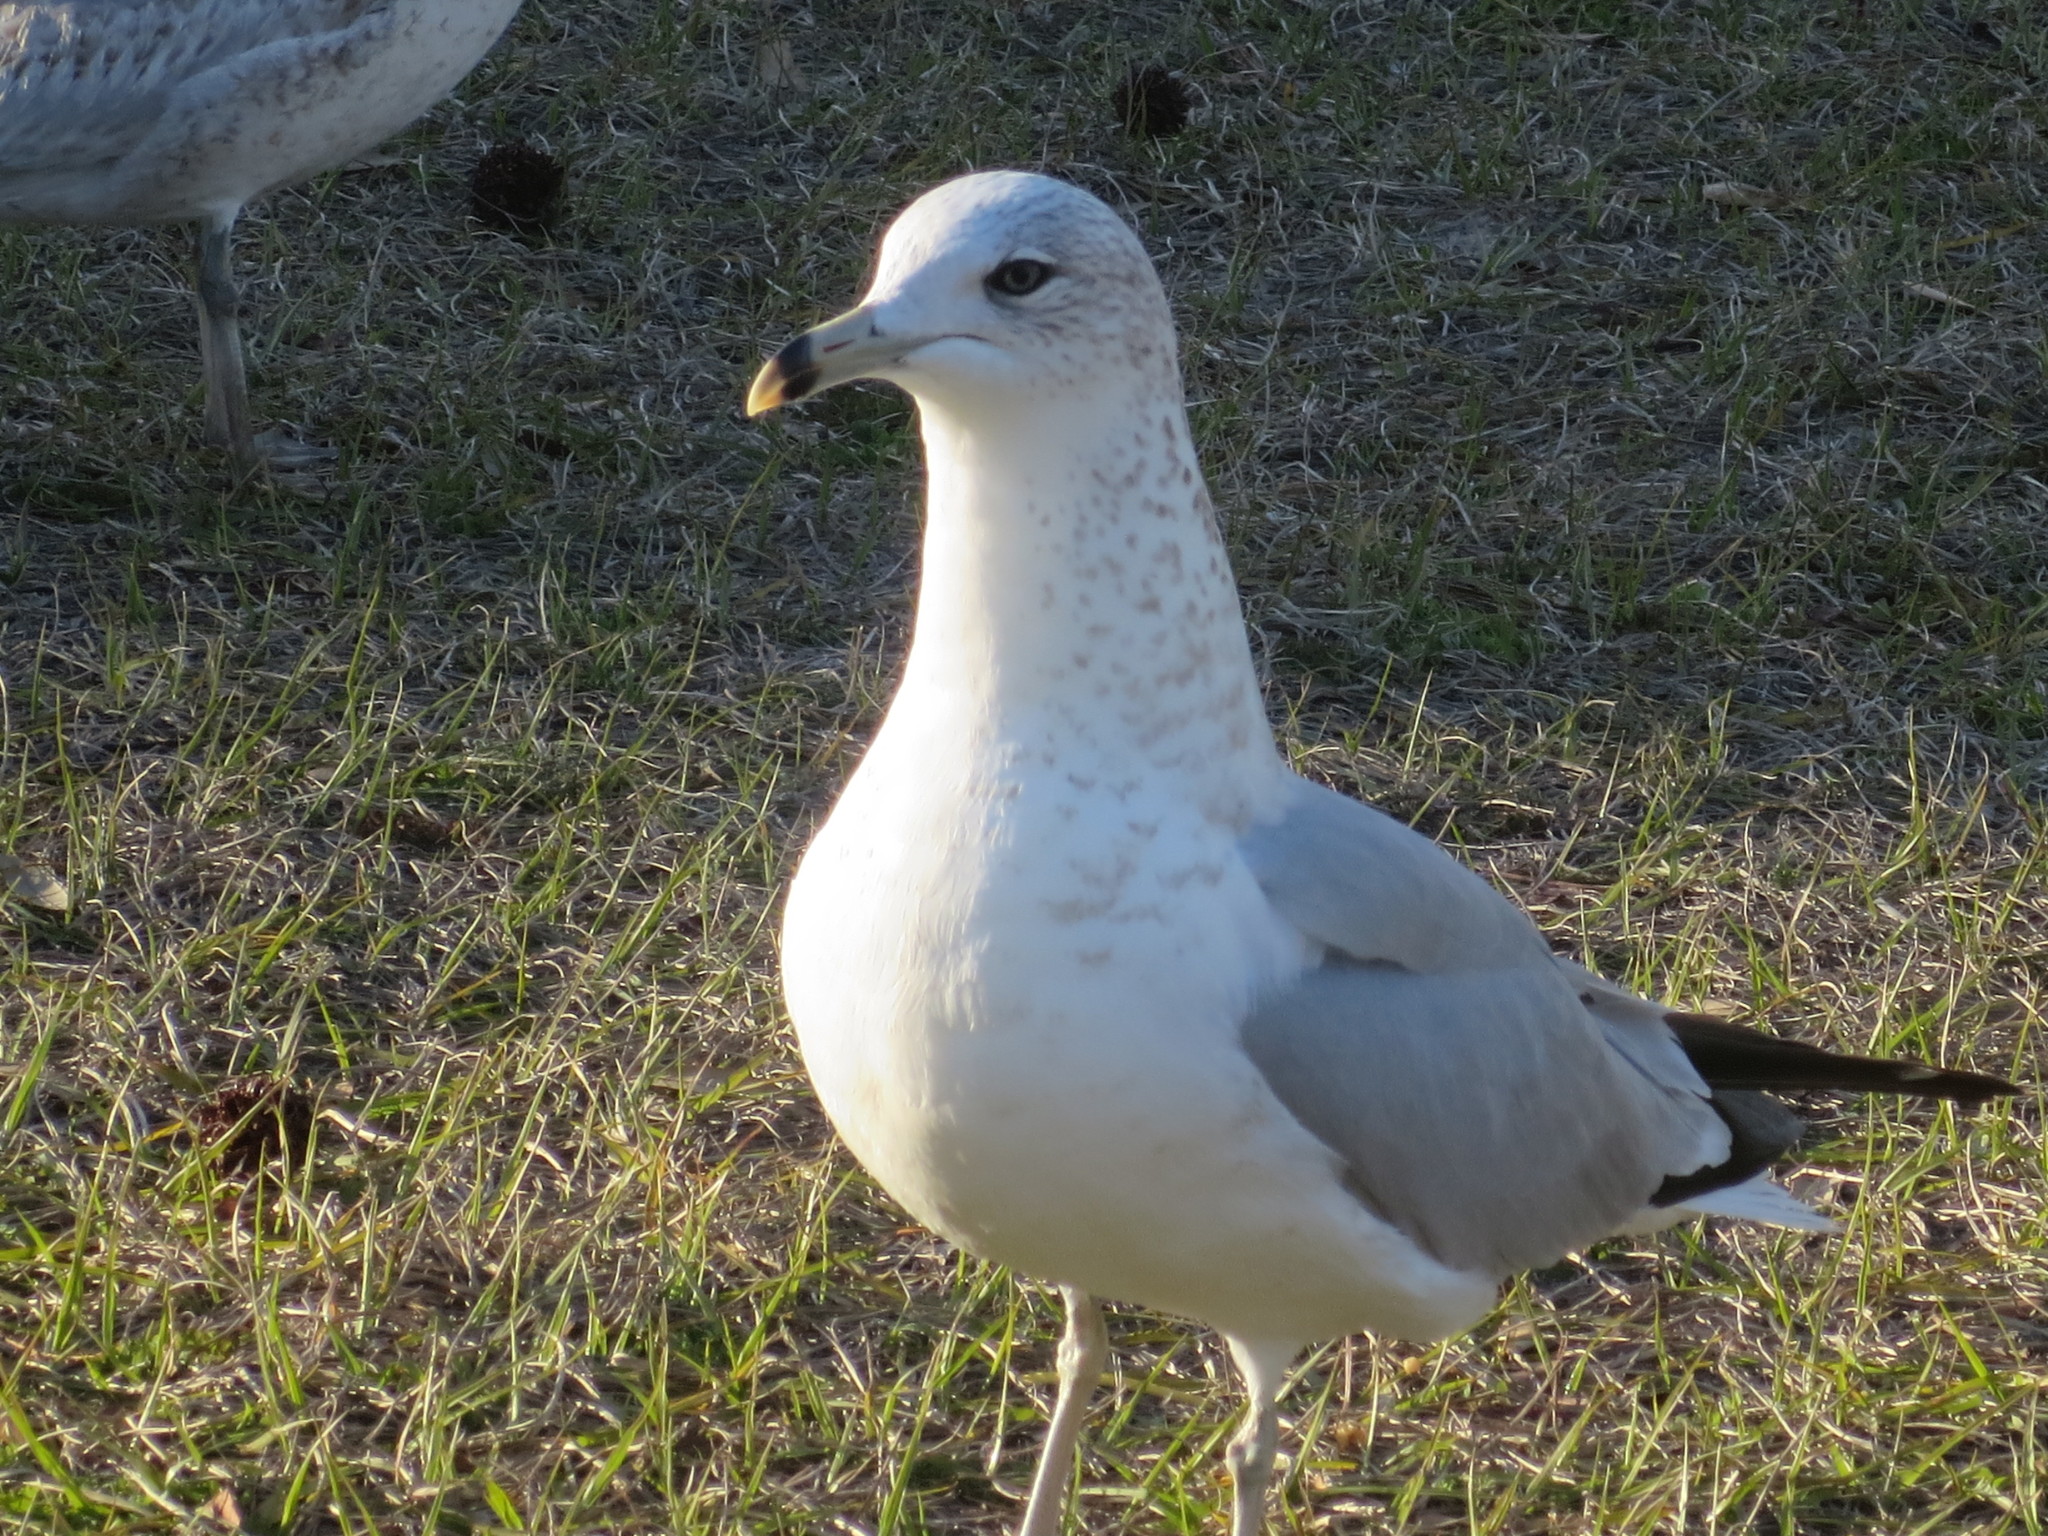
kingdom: Animalia
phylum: Chordata
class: Aves
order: Charadriiformes
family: Laridae
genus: Larus
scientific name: Larus delawarensis
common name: Ring-billed gull
